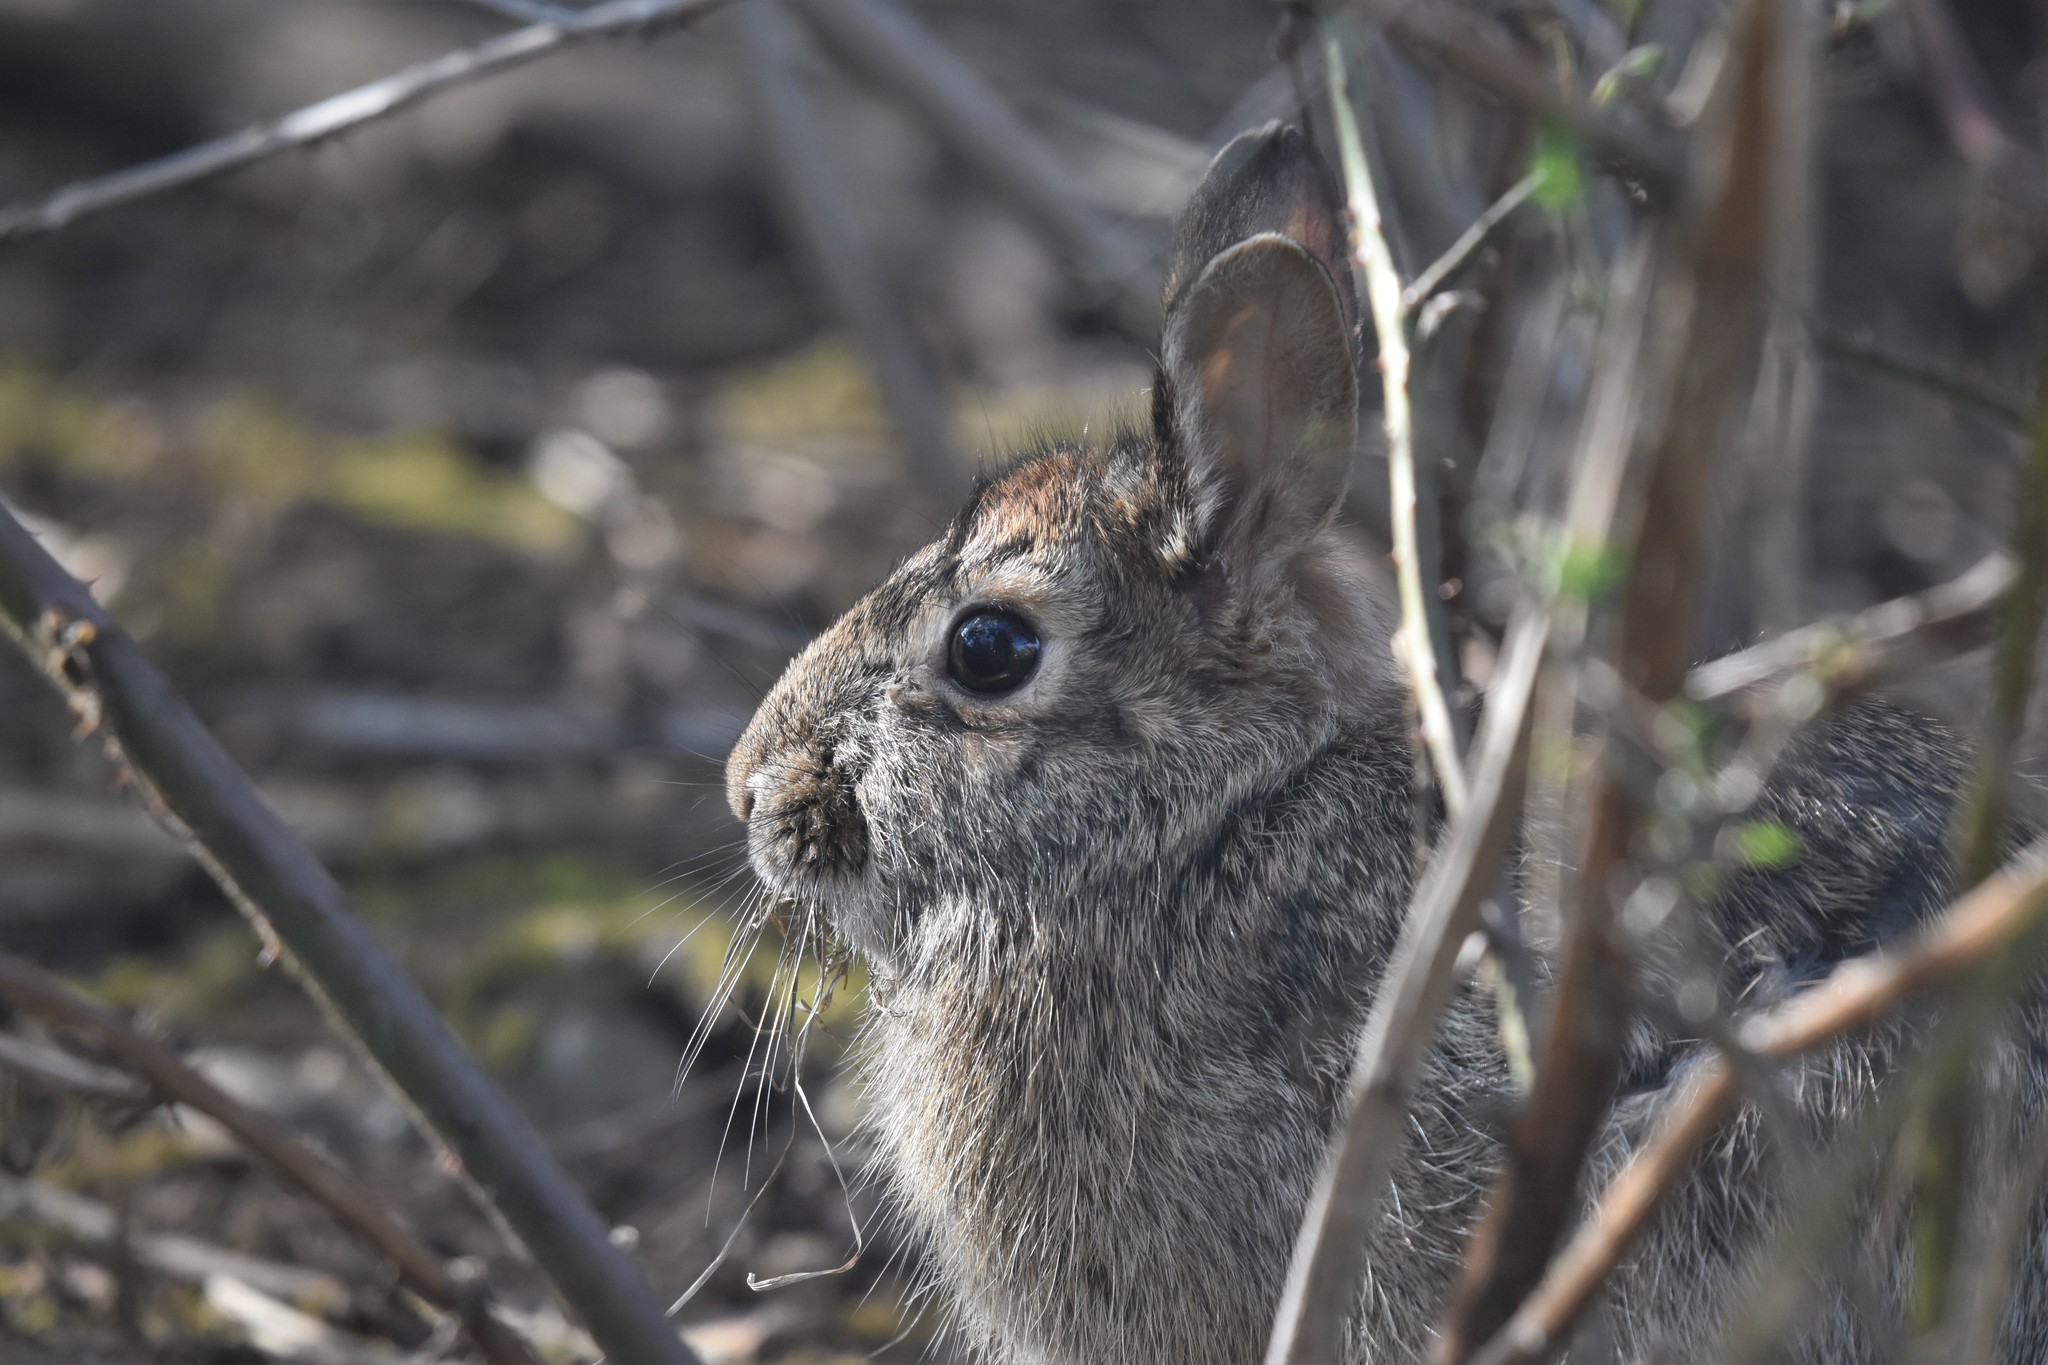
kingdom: Animalia
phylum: Chordata
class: Mammalia
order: Lagomorpha
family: Leporidae
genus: Sylvilagus
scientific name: Sylvilagus floridanus
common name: Eastern cottontail
